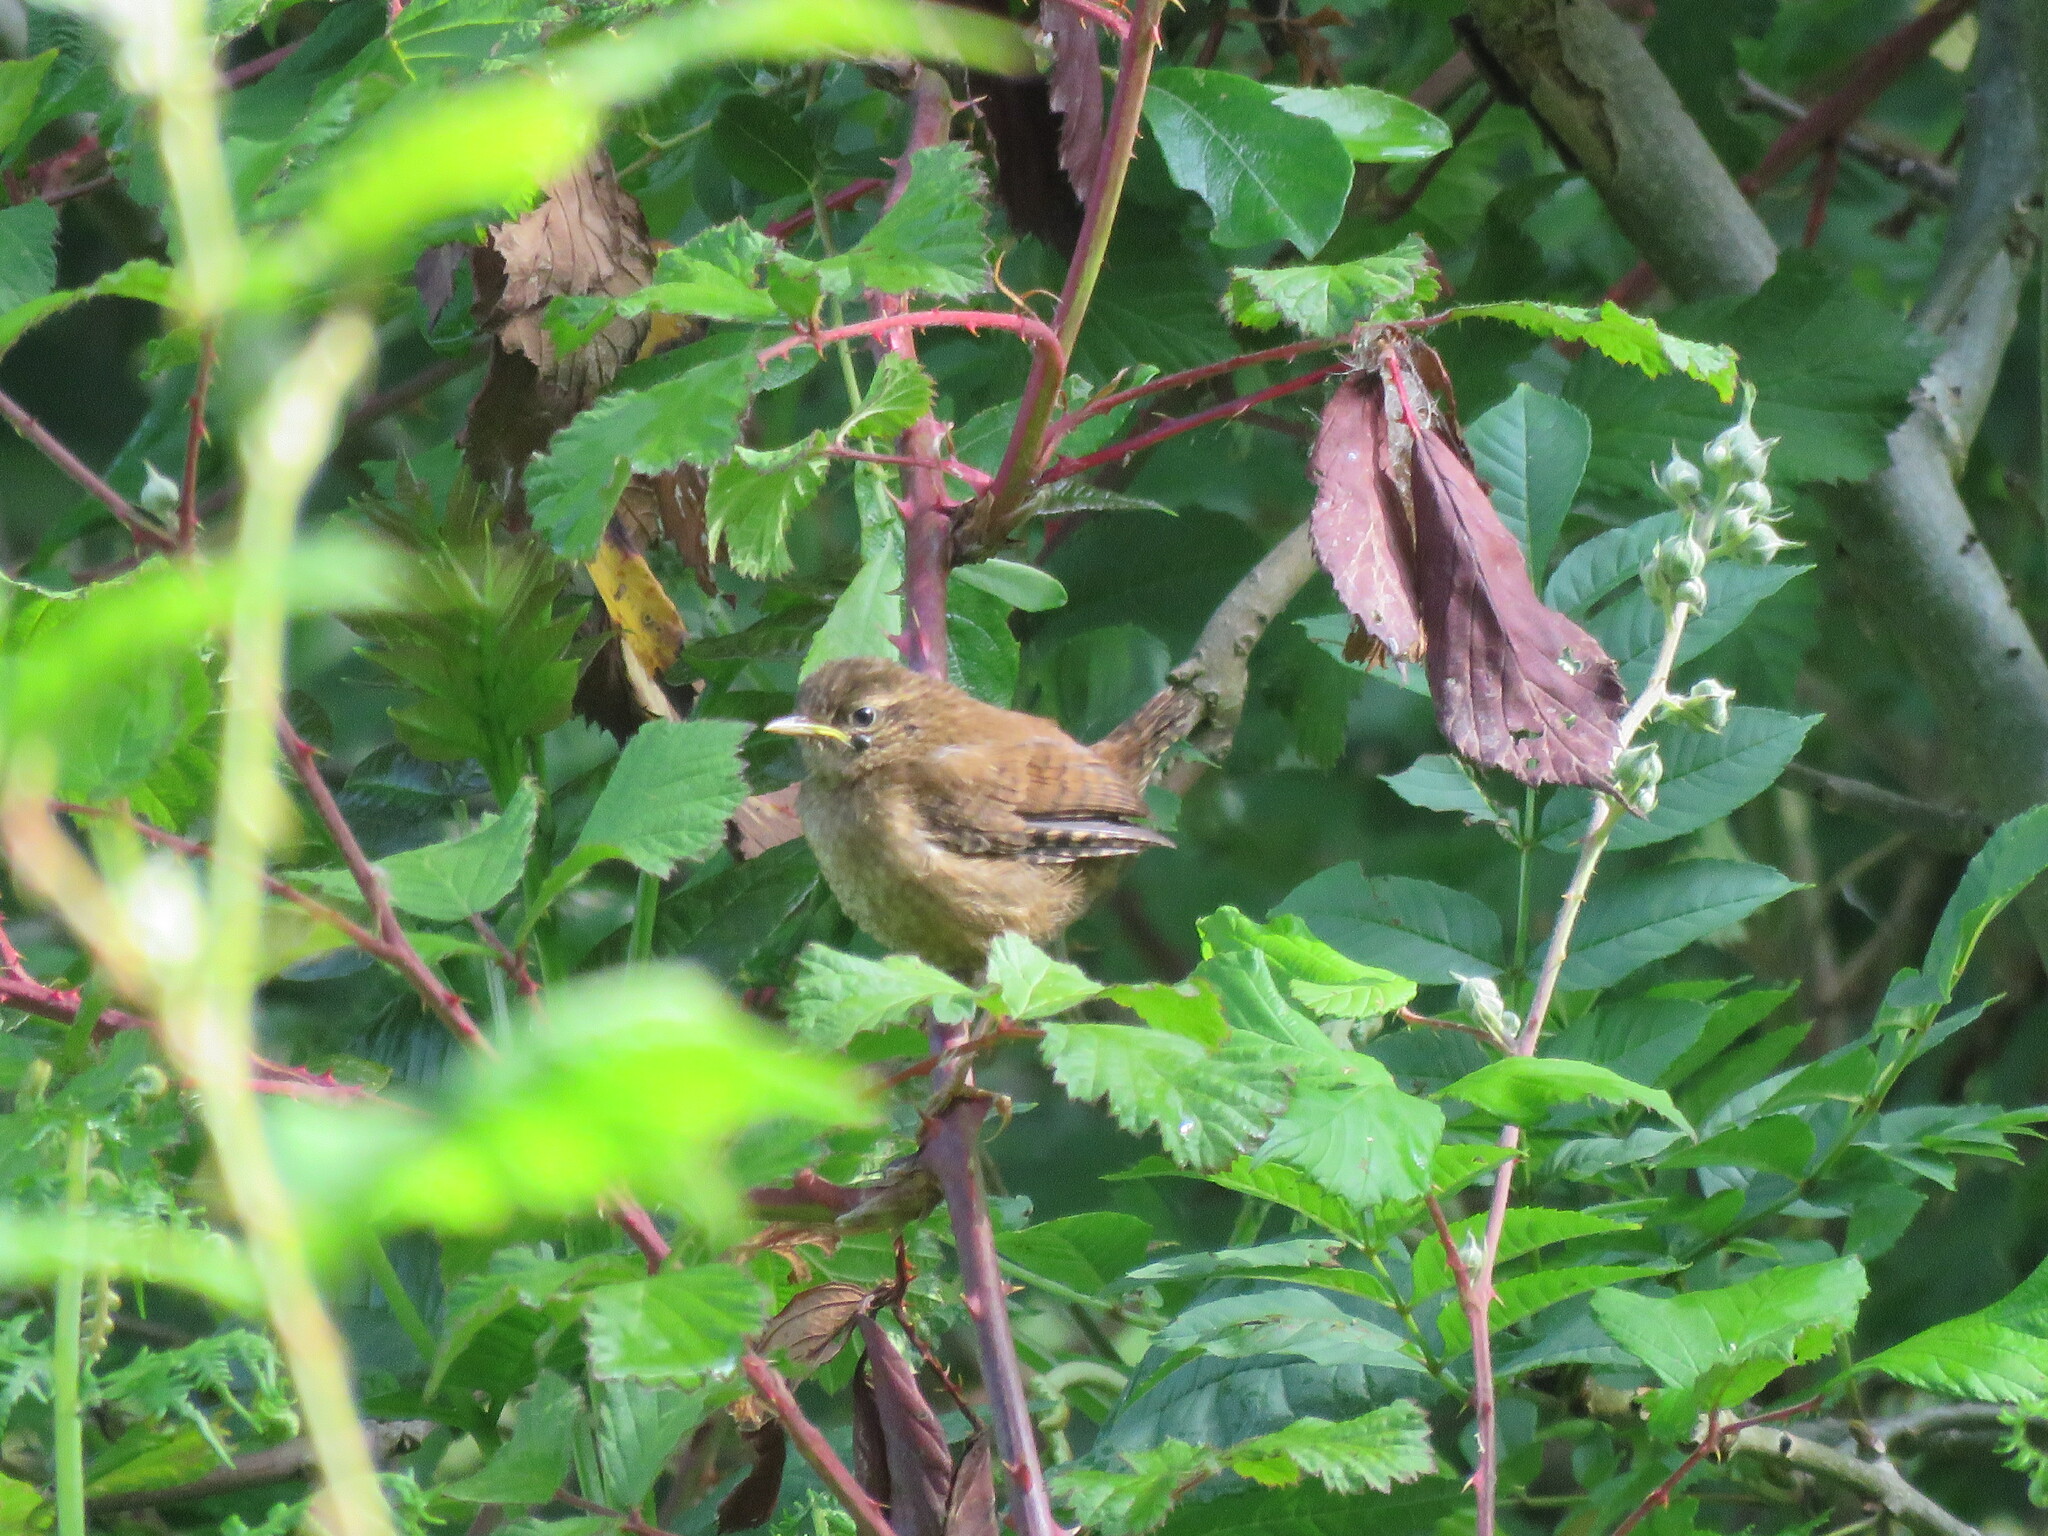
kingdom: Animalia
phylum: Chordata
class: Aves
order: Passeriformes
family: Troglodytidae
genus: Troglodytes
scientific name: Troglodytes troglodytes
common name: Eurasian wren
